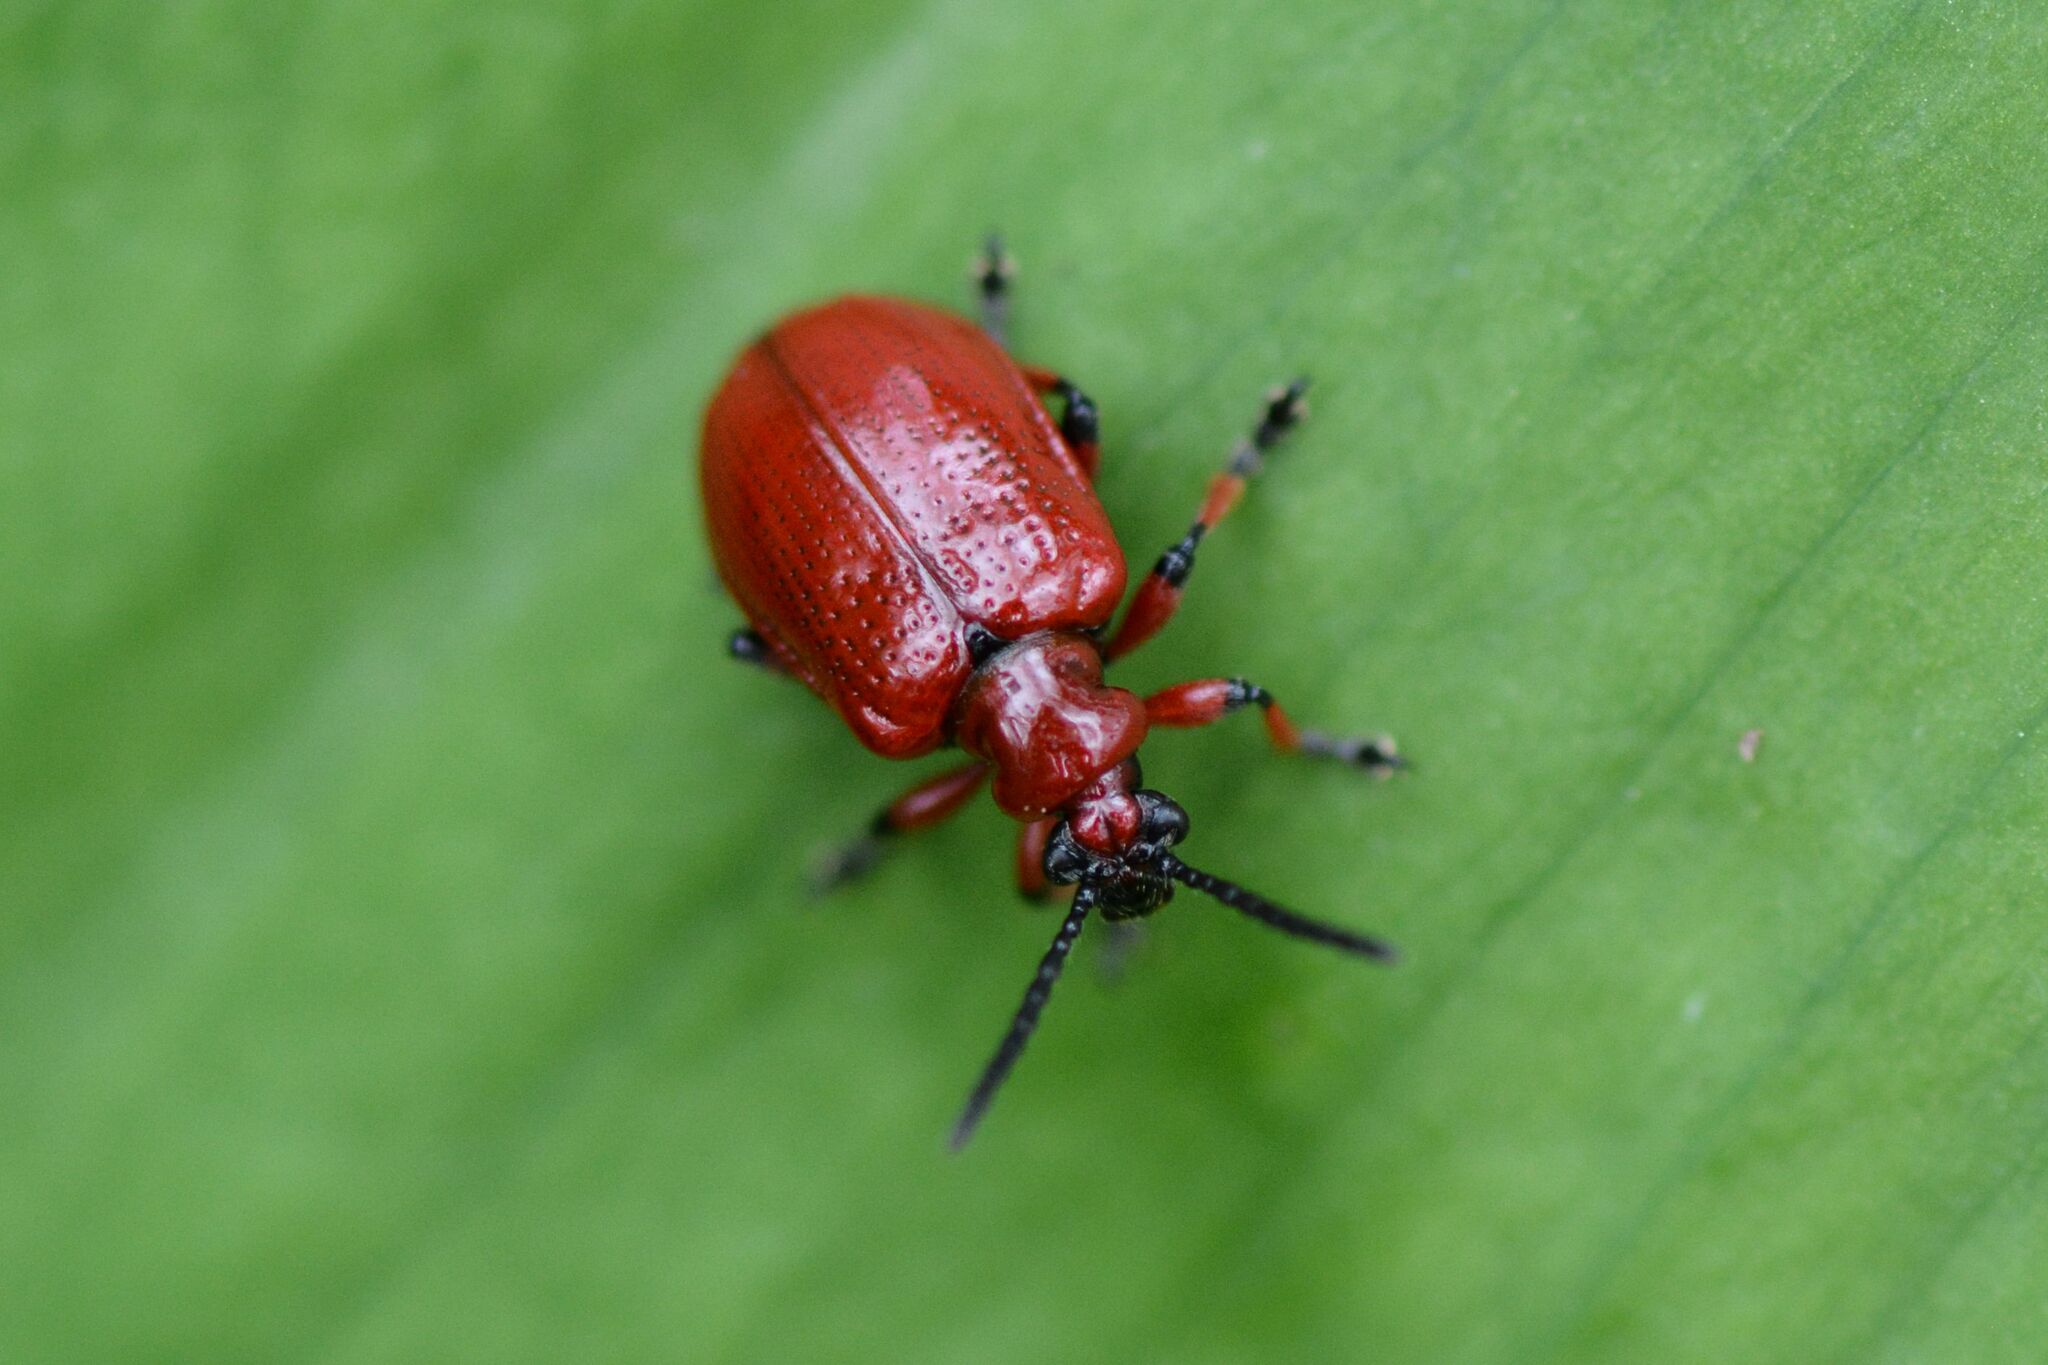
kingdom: Animalia
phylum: Arthropoda
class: Insecta
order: Coleoptera
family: Chrysomelidae
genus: Lilioceris
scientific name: Lilioceris merdigera
